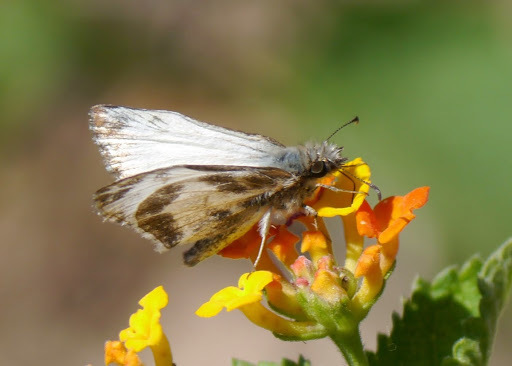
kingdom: Animalia
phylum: Arthropoda
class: Insecta
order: Lepidoptera
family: Hesperiidae
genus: Heliopetes
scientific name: Heliopetes macaira
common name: Turk's-cap white-skipper
